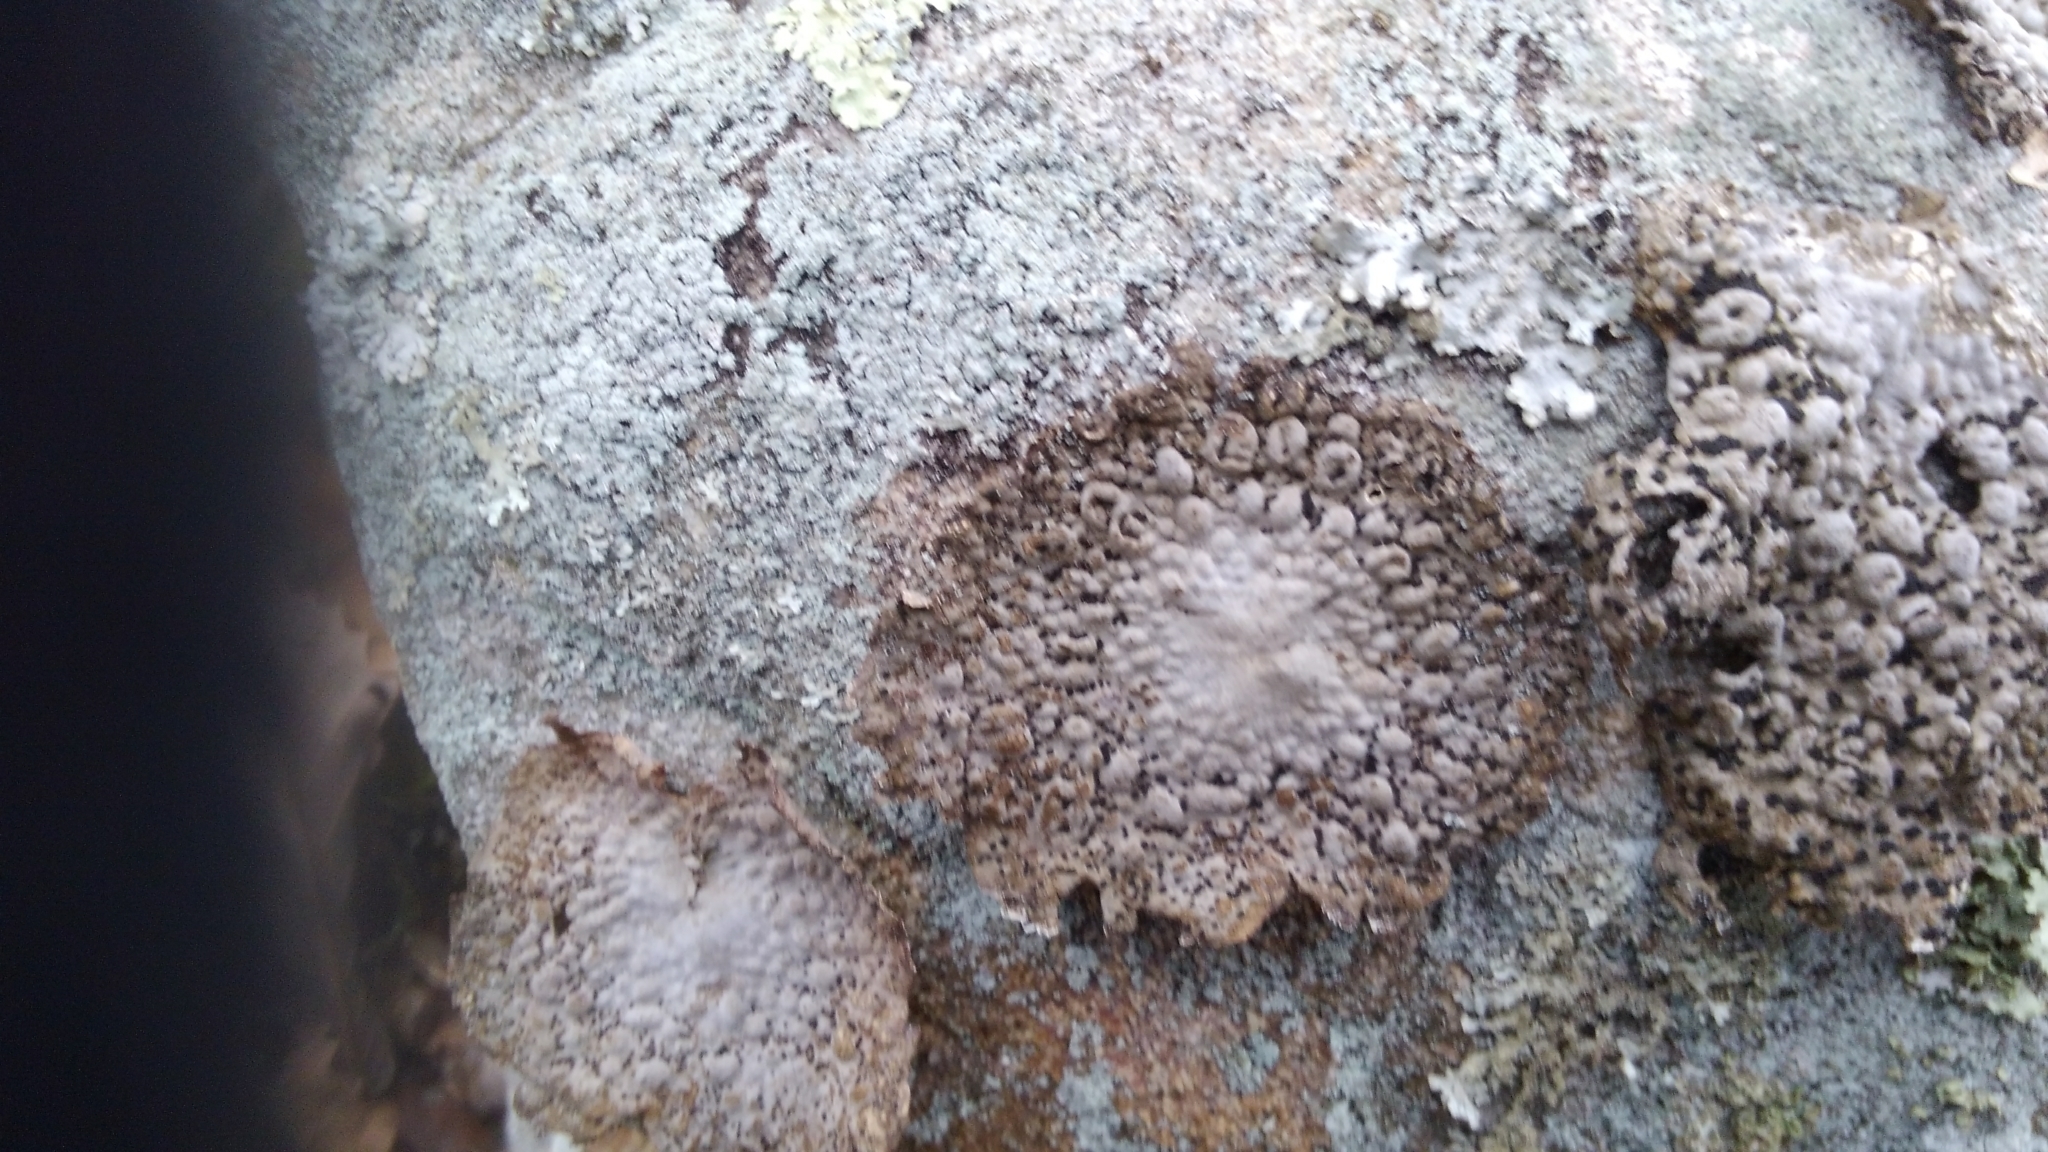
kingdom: Fungi
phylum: Ascomycota
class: Lecanoromycetes
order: Umbilicariales
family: Umbilicariaceae
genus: Lasallia
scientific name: Lasallia papulosa
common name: Common toadskin lichen
